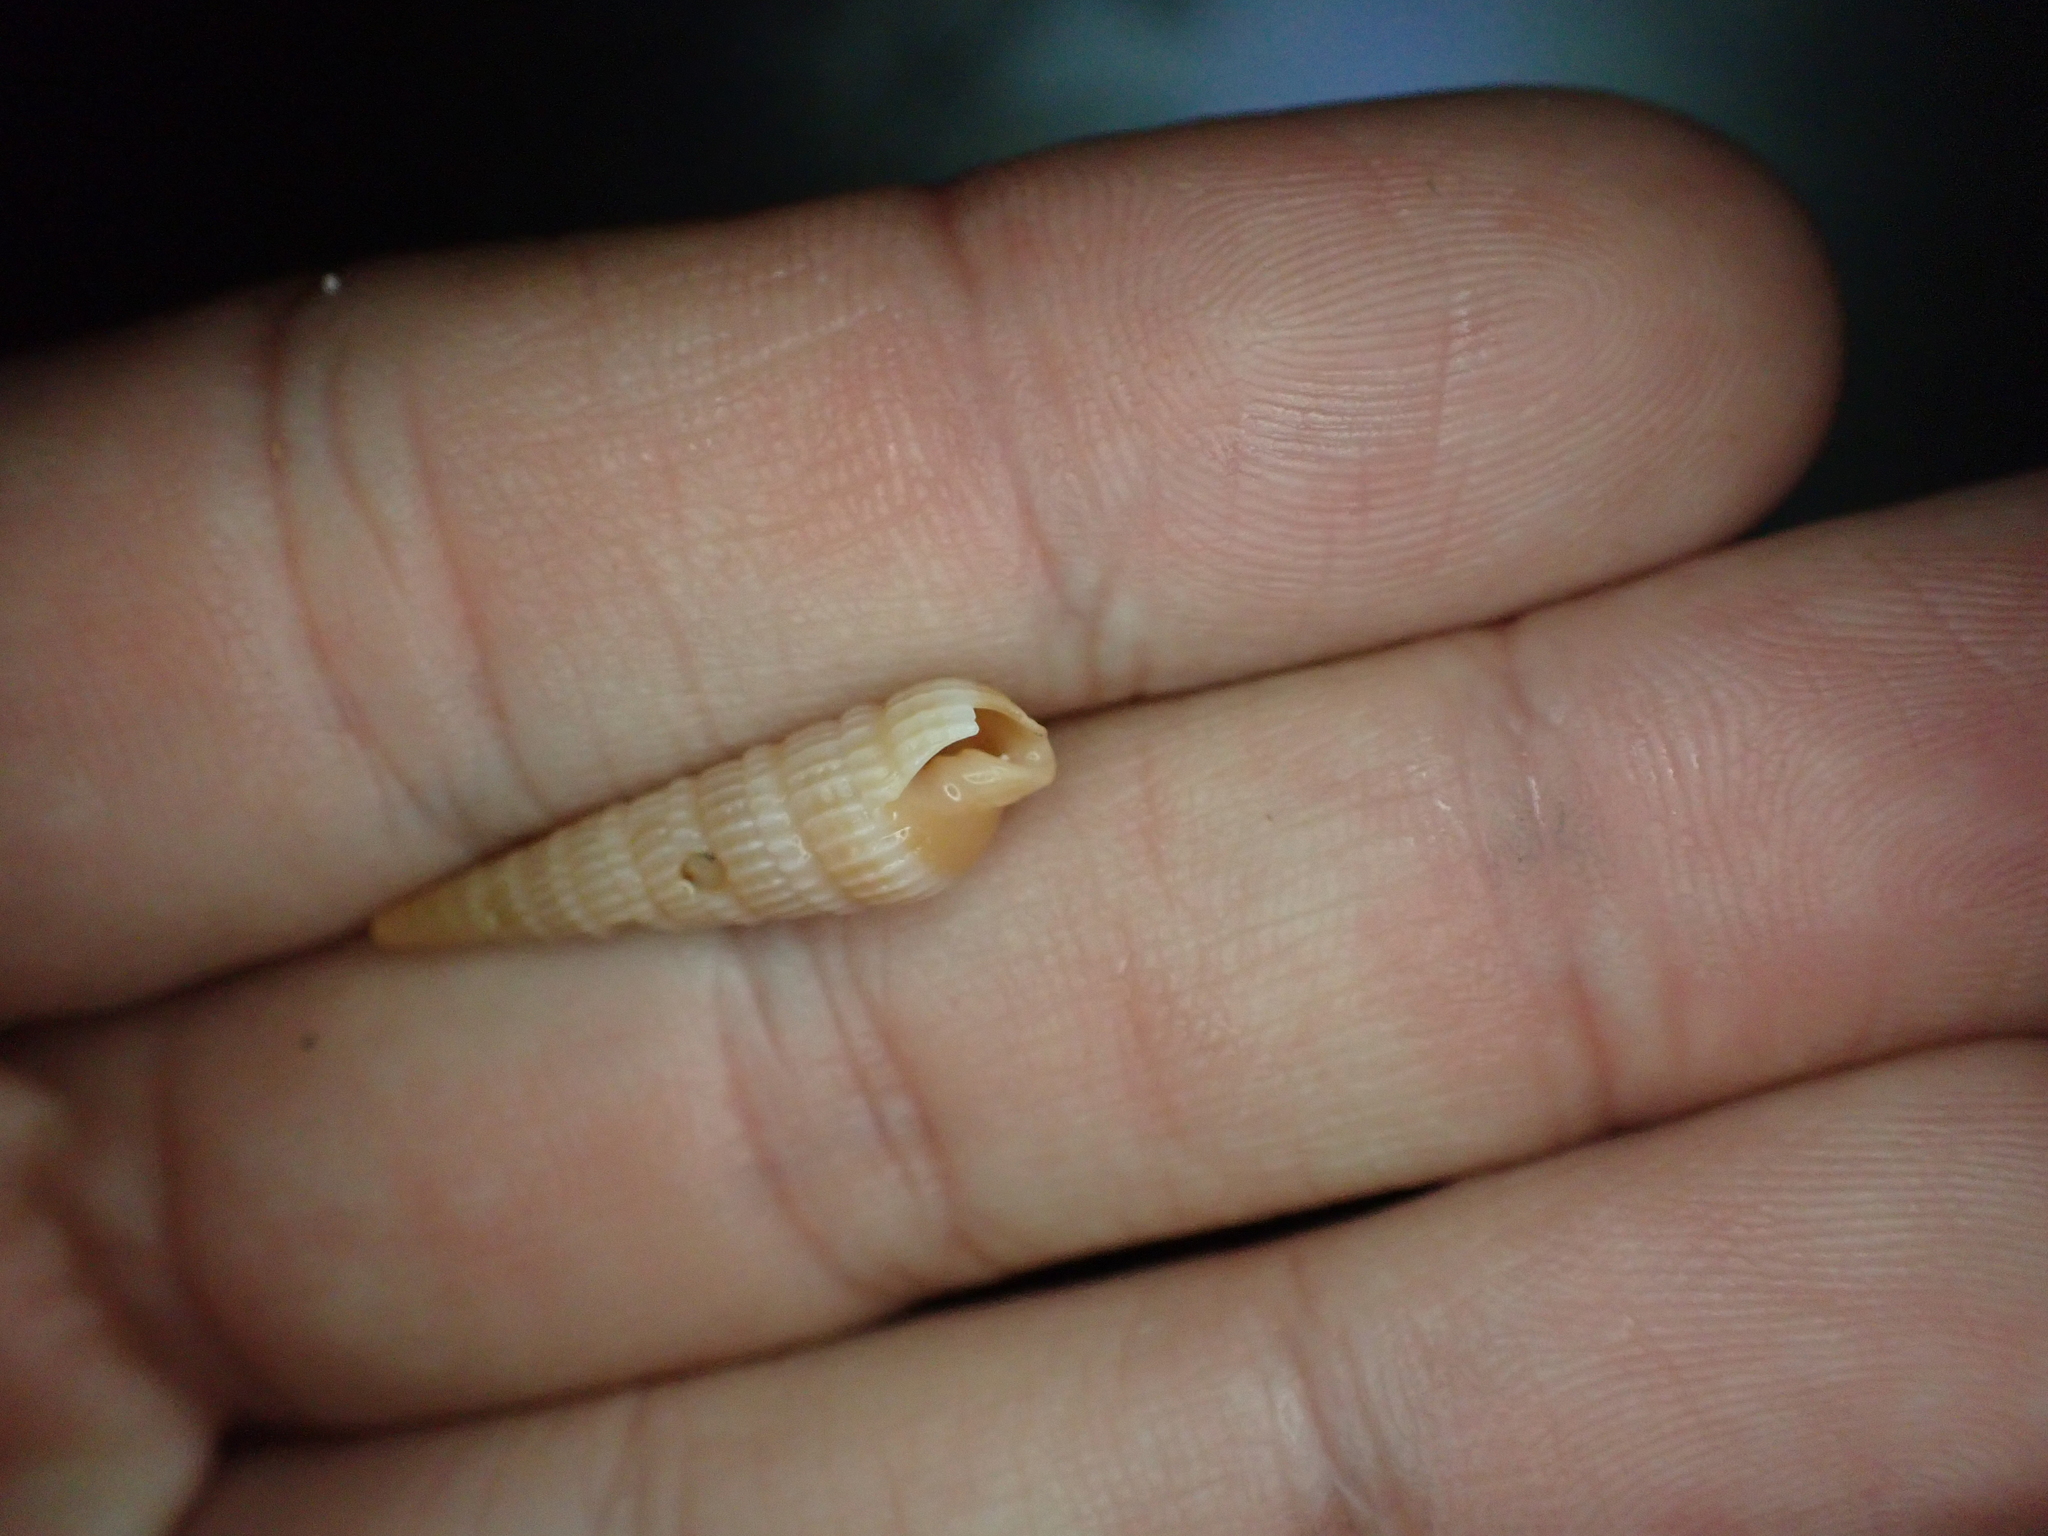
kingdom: Animalia
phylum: Mollusca
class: Gastropoda
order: Neogastropoda
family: Terebridae
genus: Neoterebra
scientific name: Neoterebra dislocata
